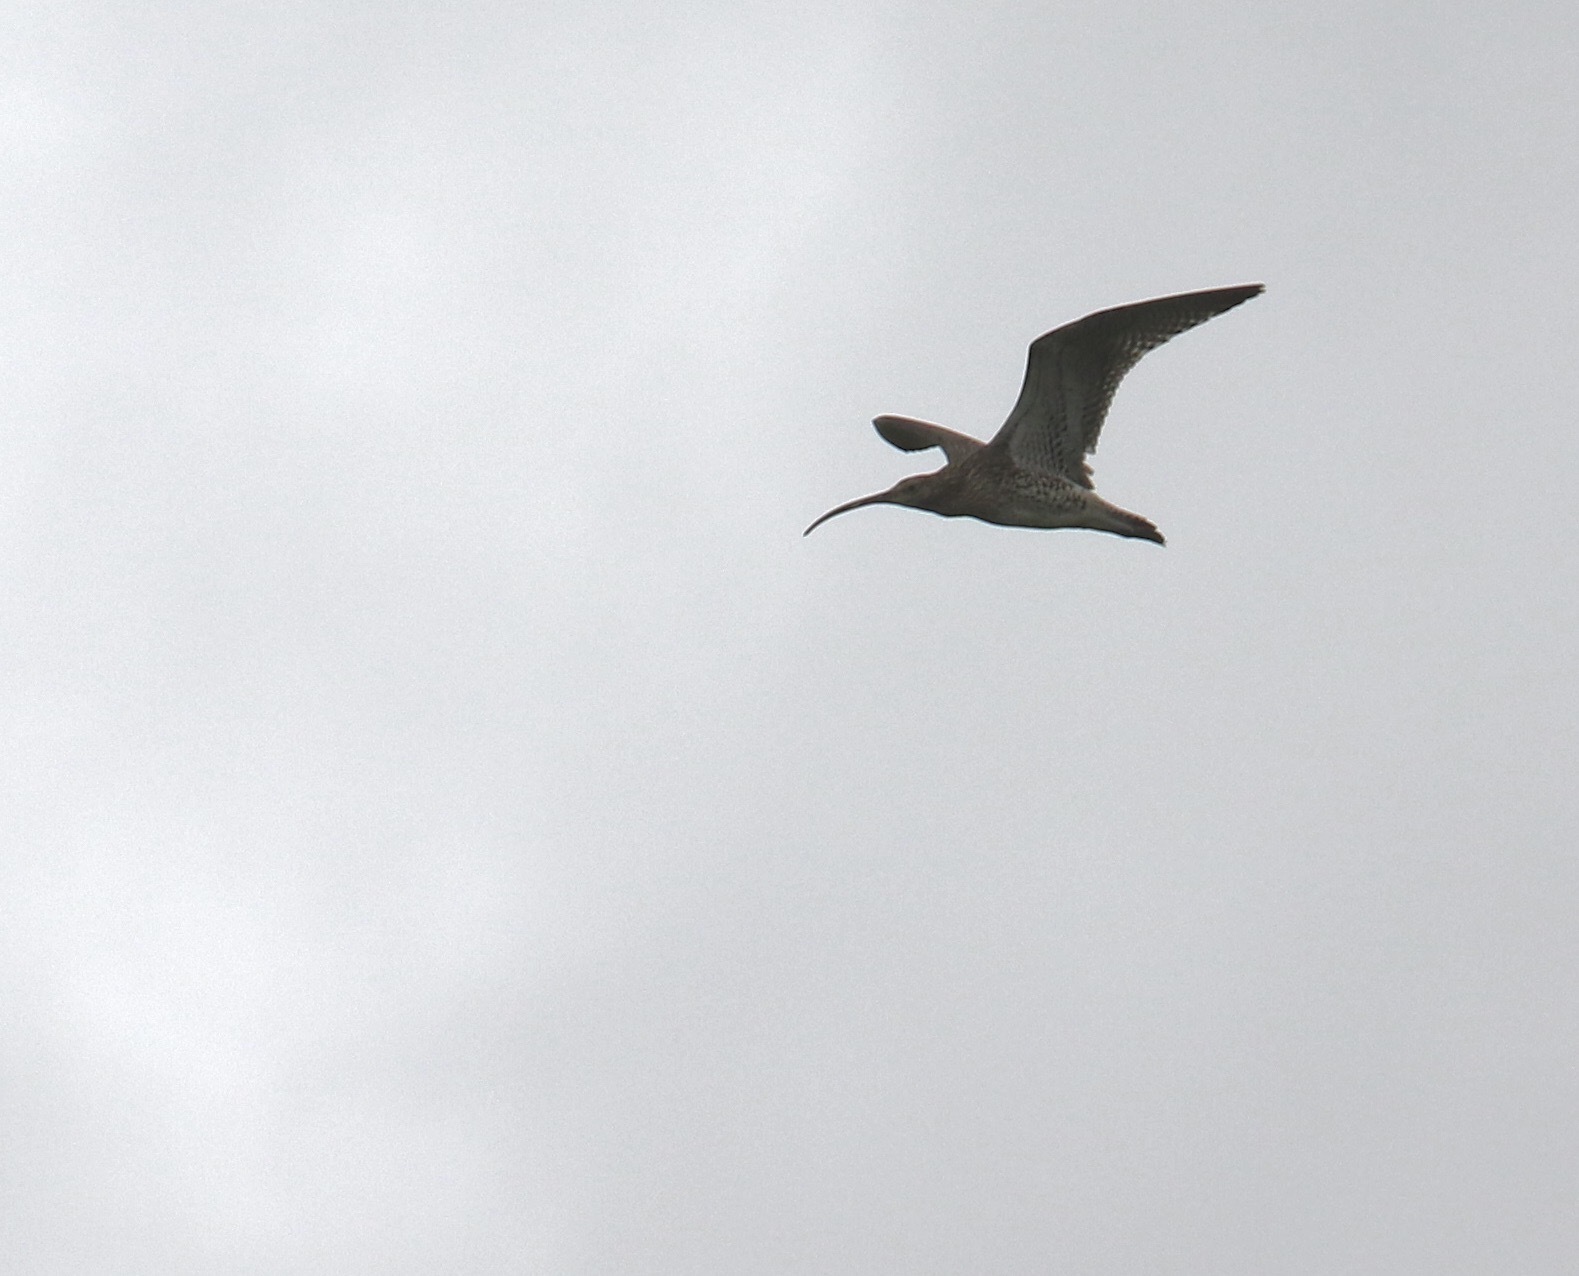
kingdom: Animalia
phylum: Chordata
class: Aves
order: Charadriiformes
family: Scolopacidae
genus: Numenius
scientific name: Numenius arquata
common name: Eurasian curlew
